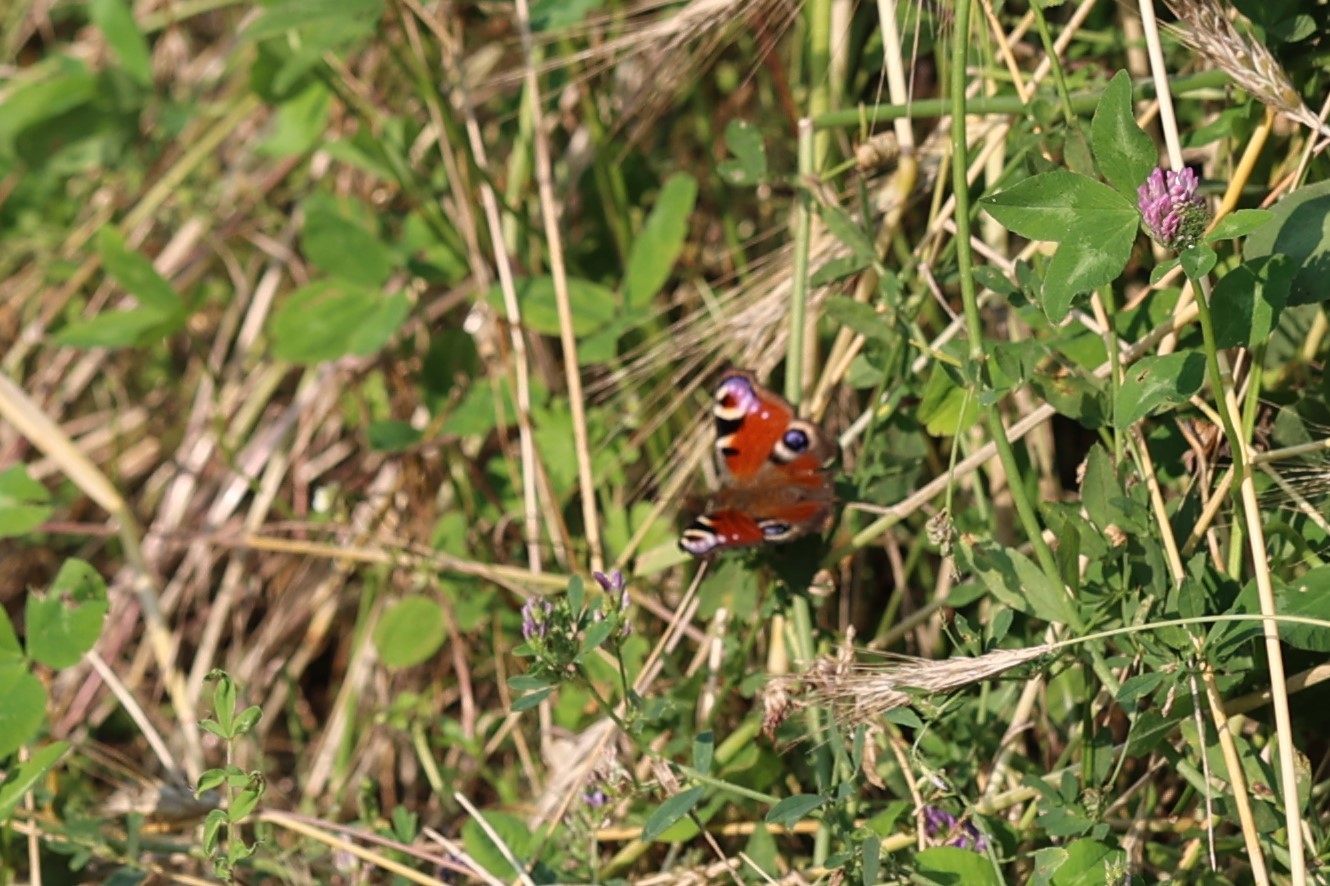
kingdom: Animalia
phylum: Arthropoda
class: Insecta
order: Lepidoptera
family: Nymphalidae
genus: Aglais
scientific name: Aglais io
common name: Peacock
